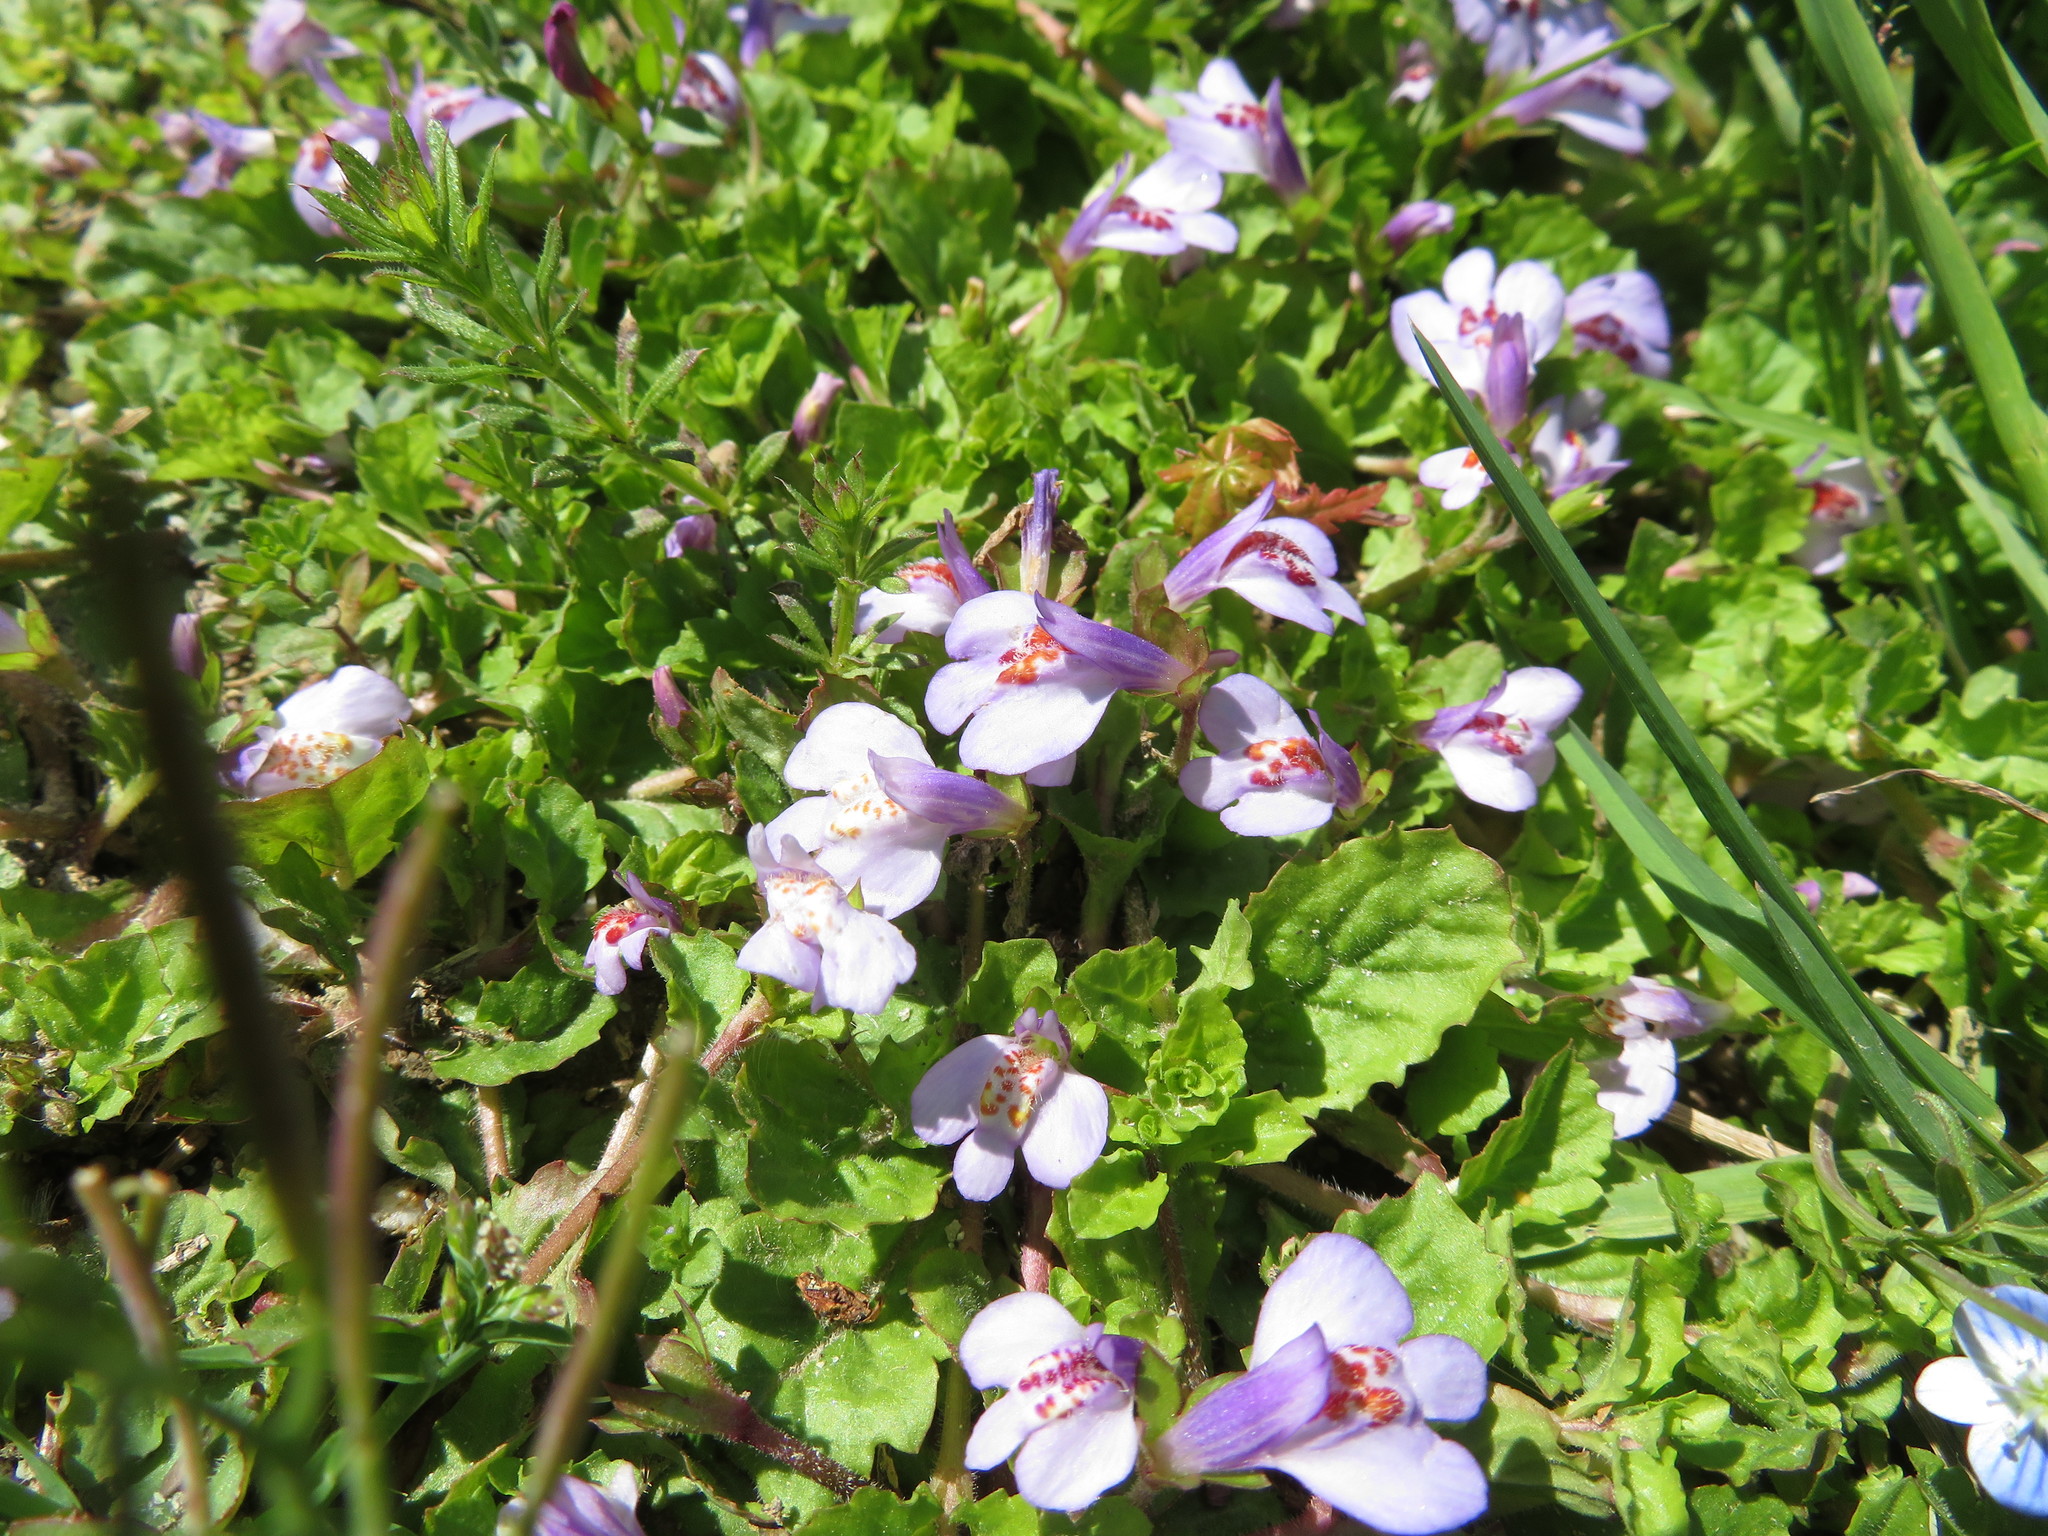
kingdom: Plantae
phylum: Tracheophyta
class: Magnoliopsida
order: Lamiales
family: Mazaceae
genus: Mazus
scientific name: Mazus miquelii
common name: Miquel's mazus
